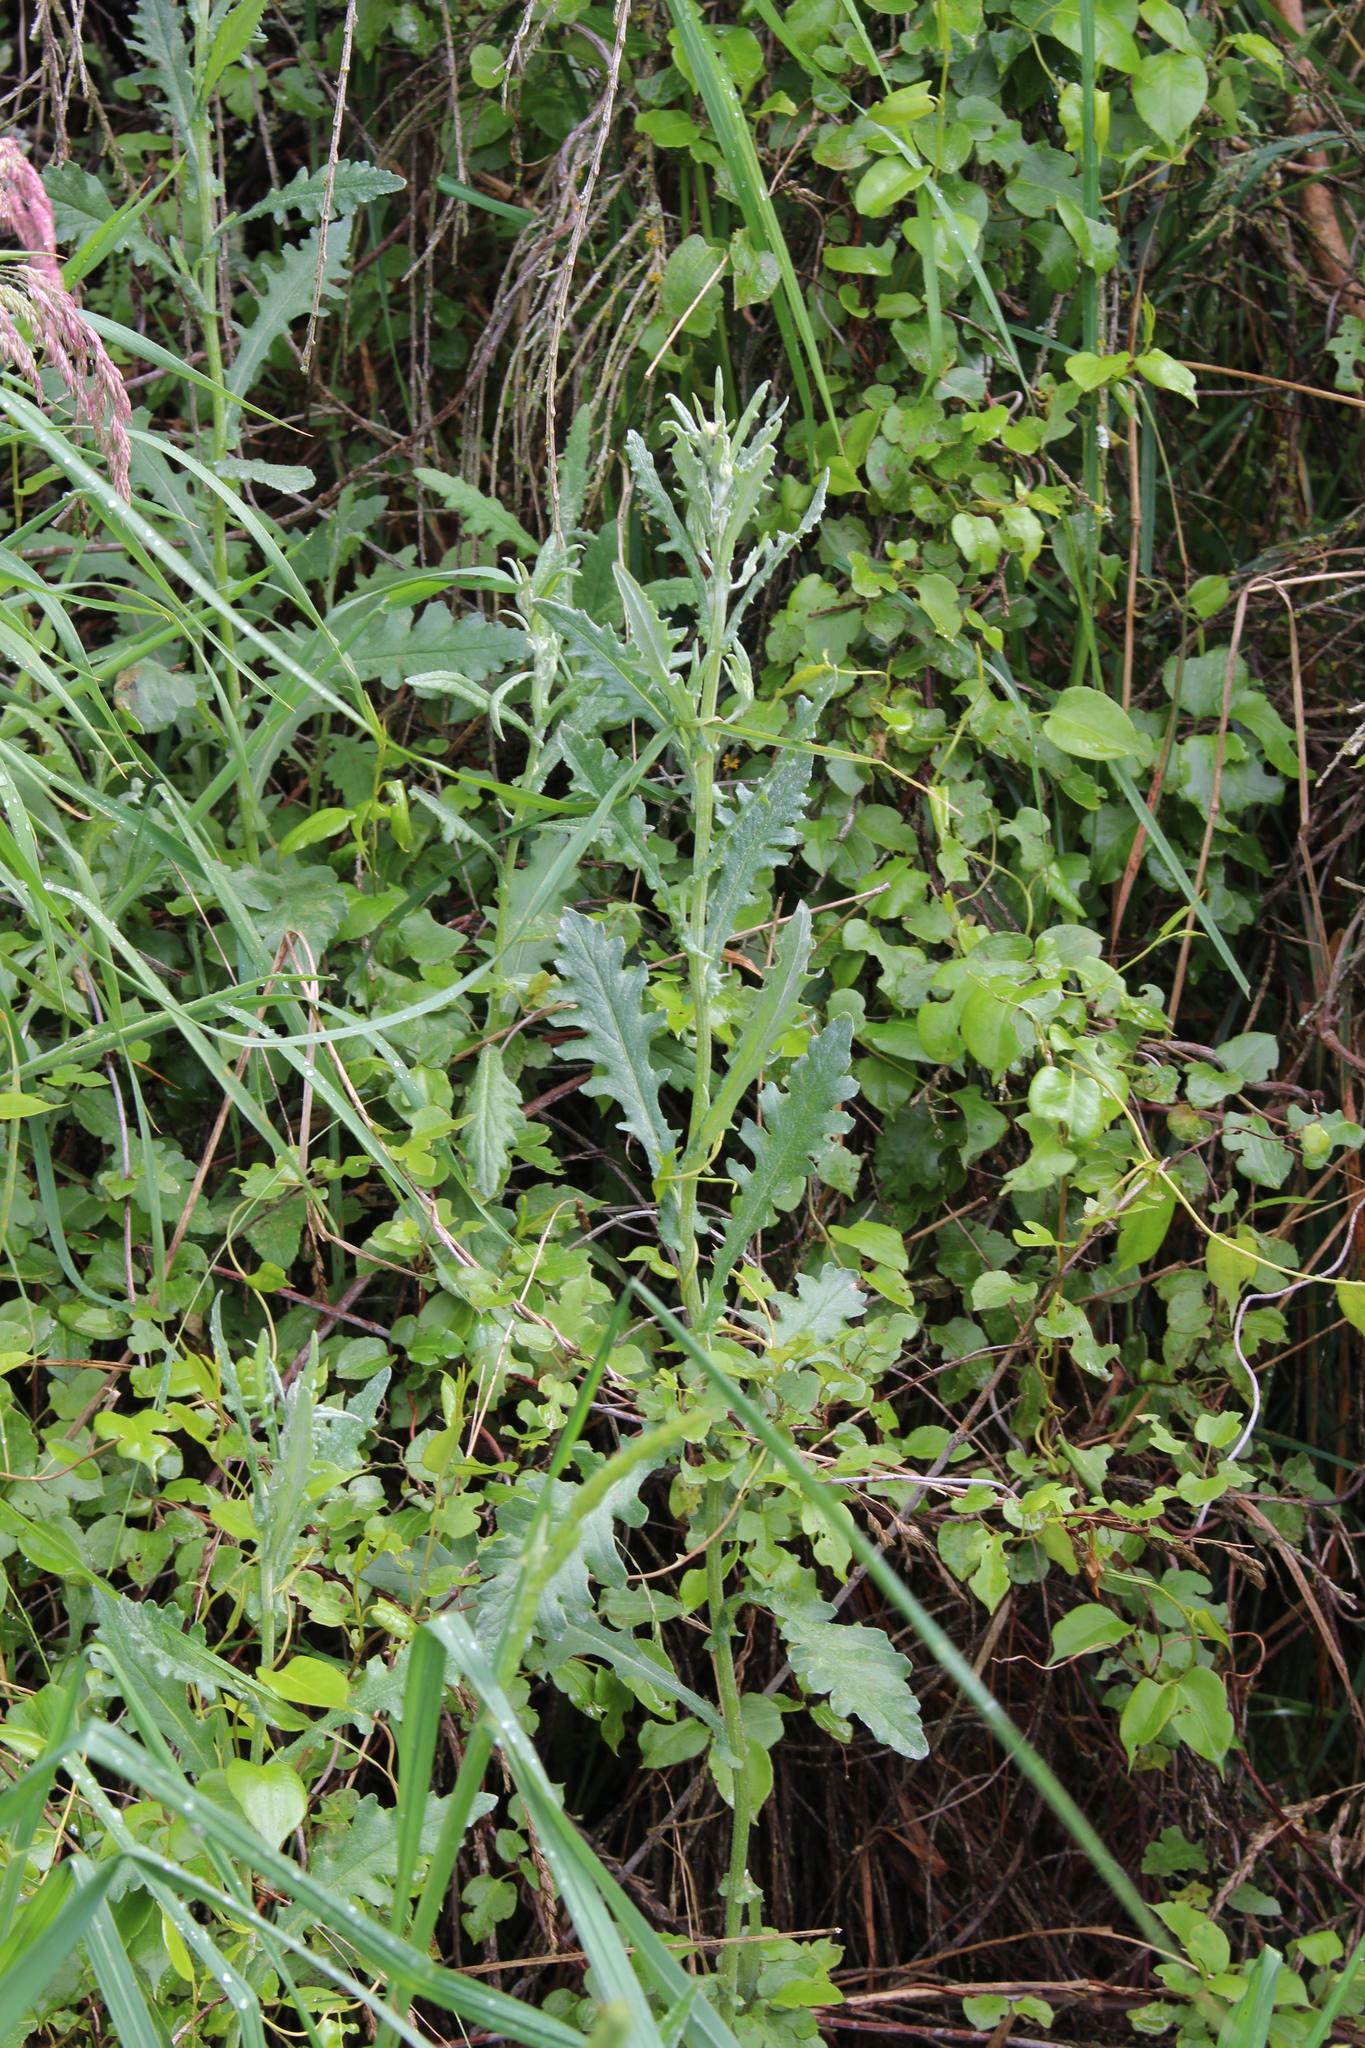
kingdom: Plantae
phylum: Tracheophyta
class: Magnoliopsida
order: Asterales
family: Asteraceae
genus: Senecio
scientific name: Senecio glomeratus
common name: Cutleaf burnweed
